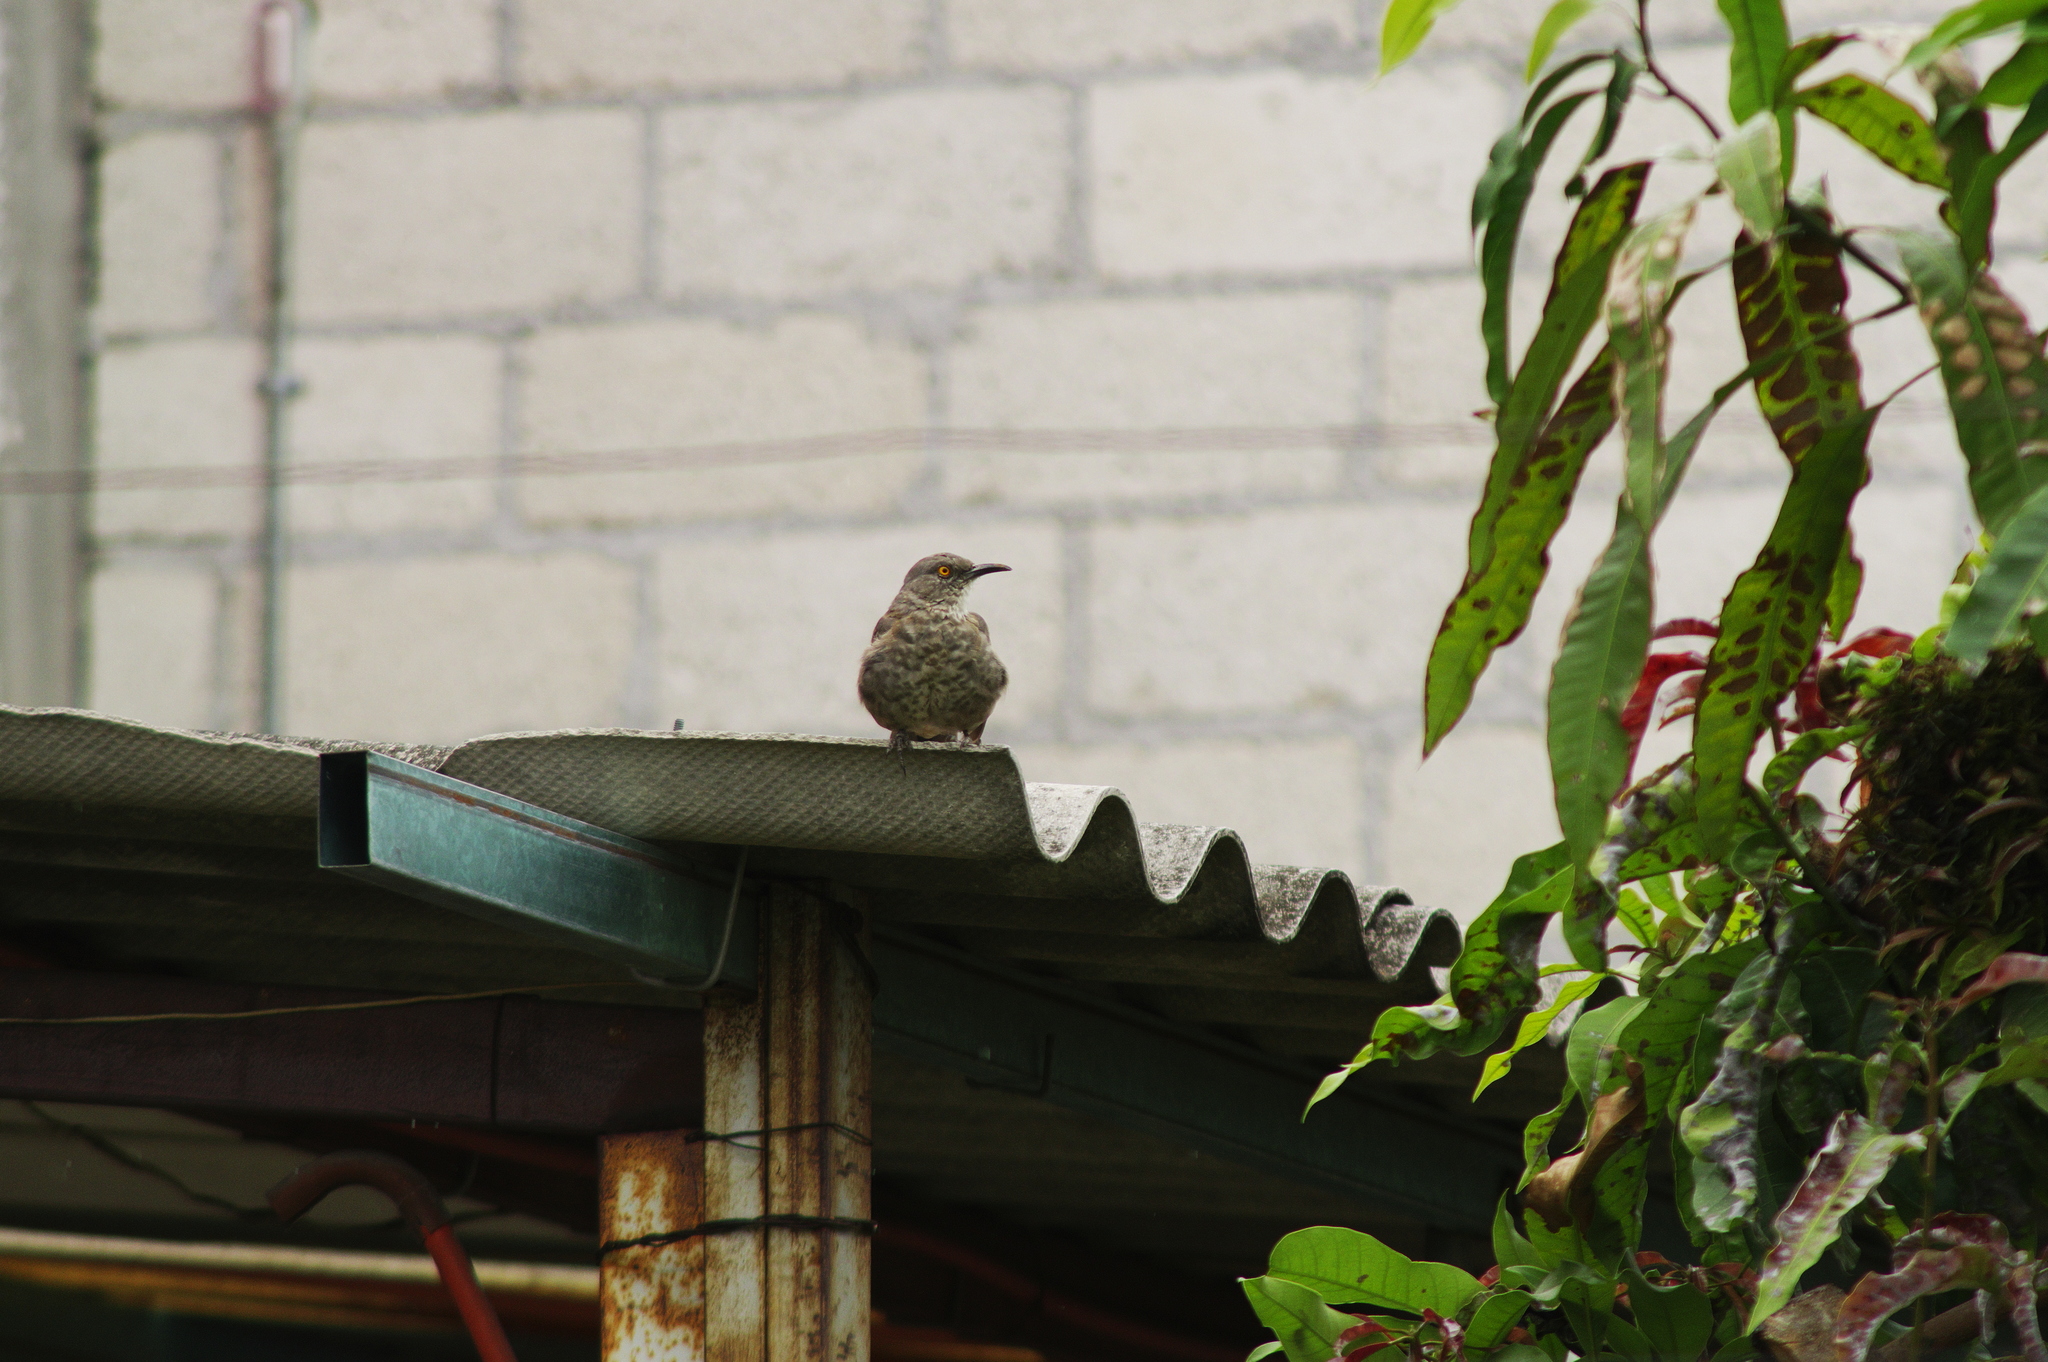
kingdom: Animalia
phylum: Chordata
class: Aves
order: Passeriformes
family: Mimidae
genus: Toxostoma
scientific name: Toxostoma curvirostre
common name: Curve-billed thrasher
